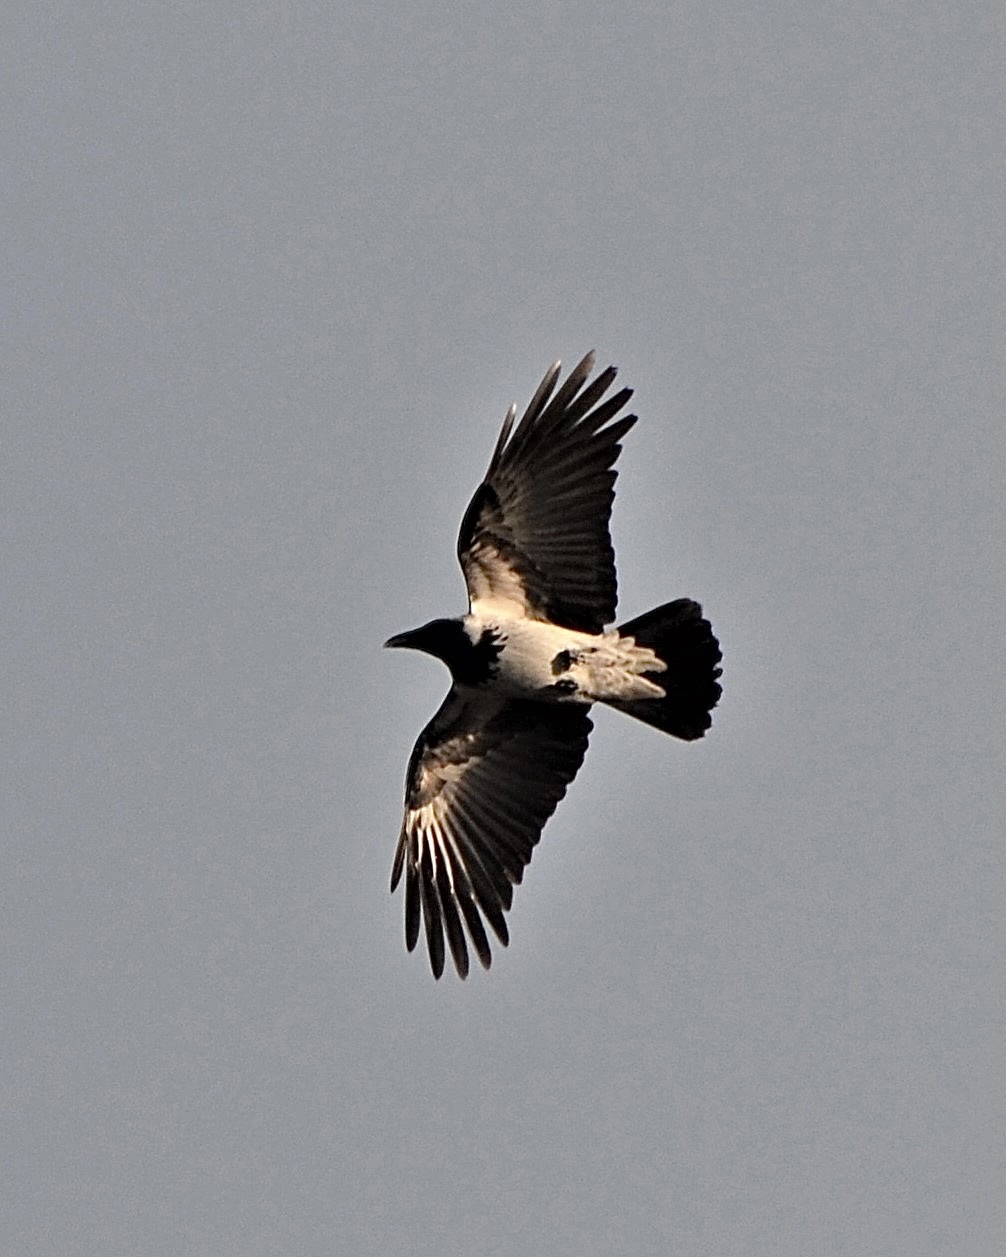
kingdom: Animalia
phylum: Chordata
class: Aves
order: Passeriformes
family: Corvidae
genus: Corvus
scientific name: Corvus cornix
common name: Hooded crow
